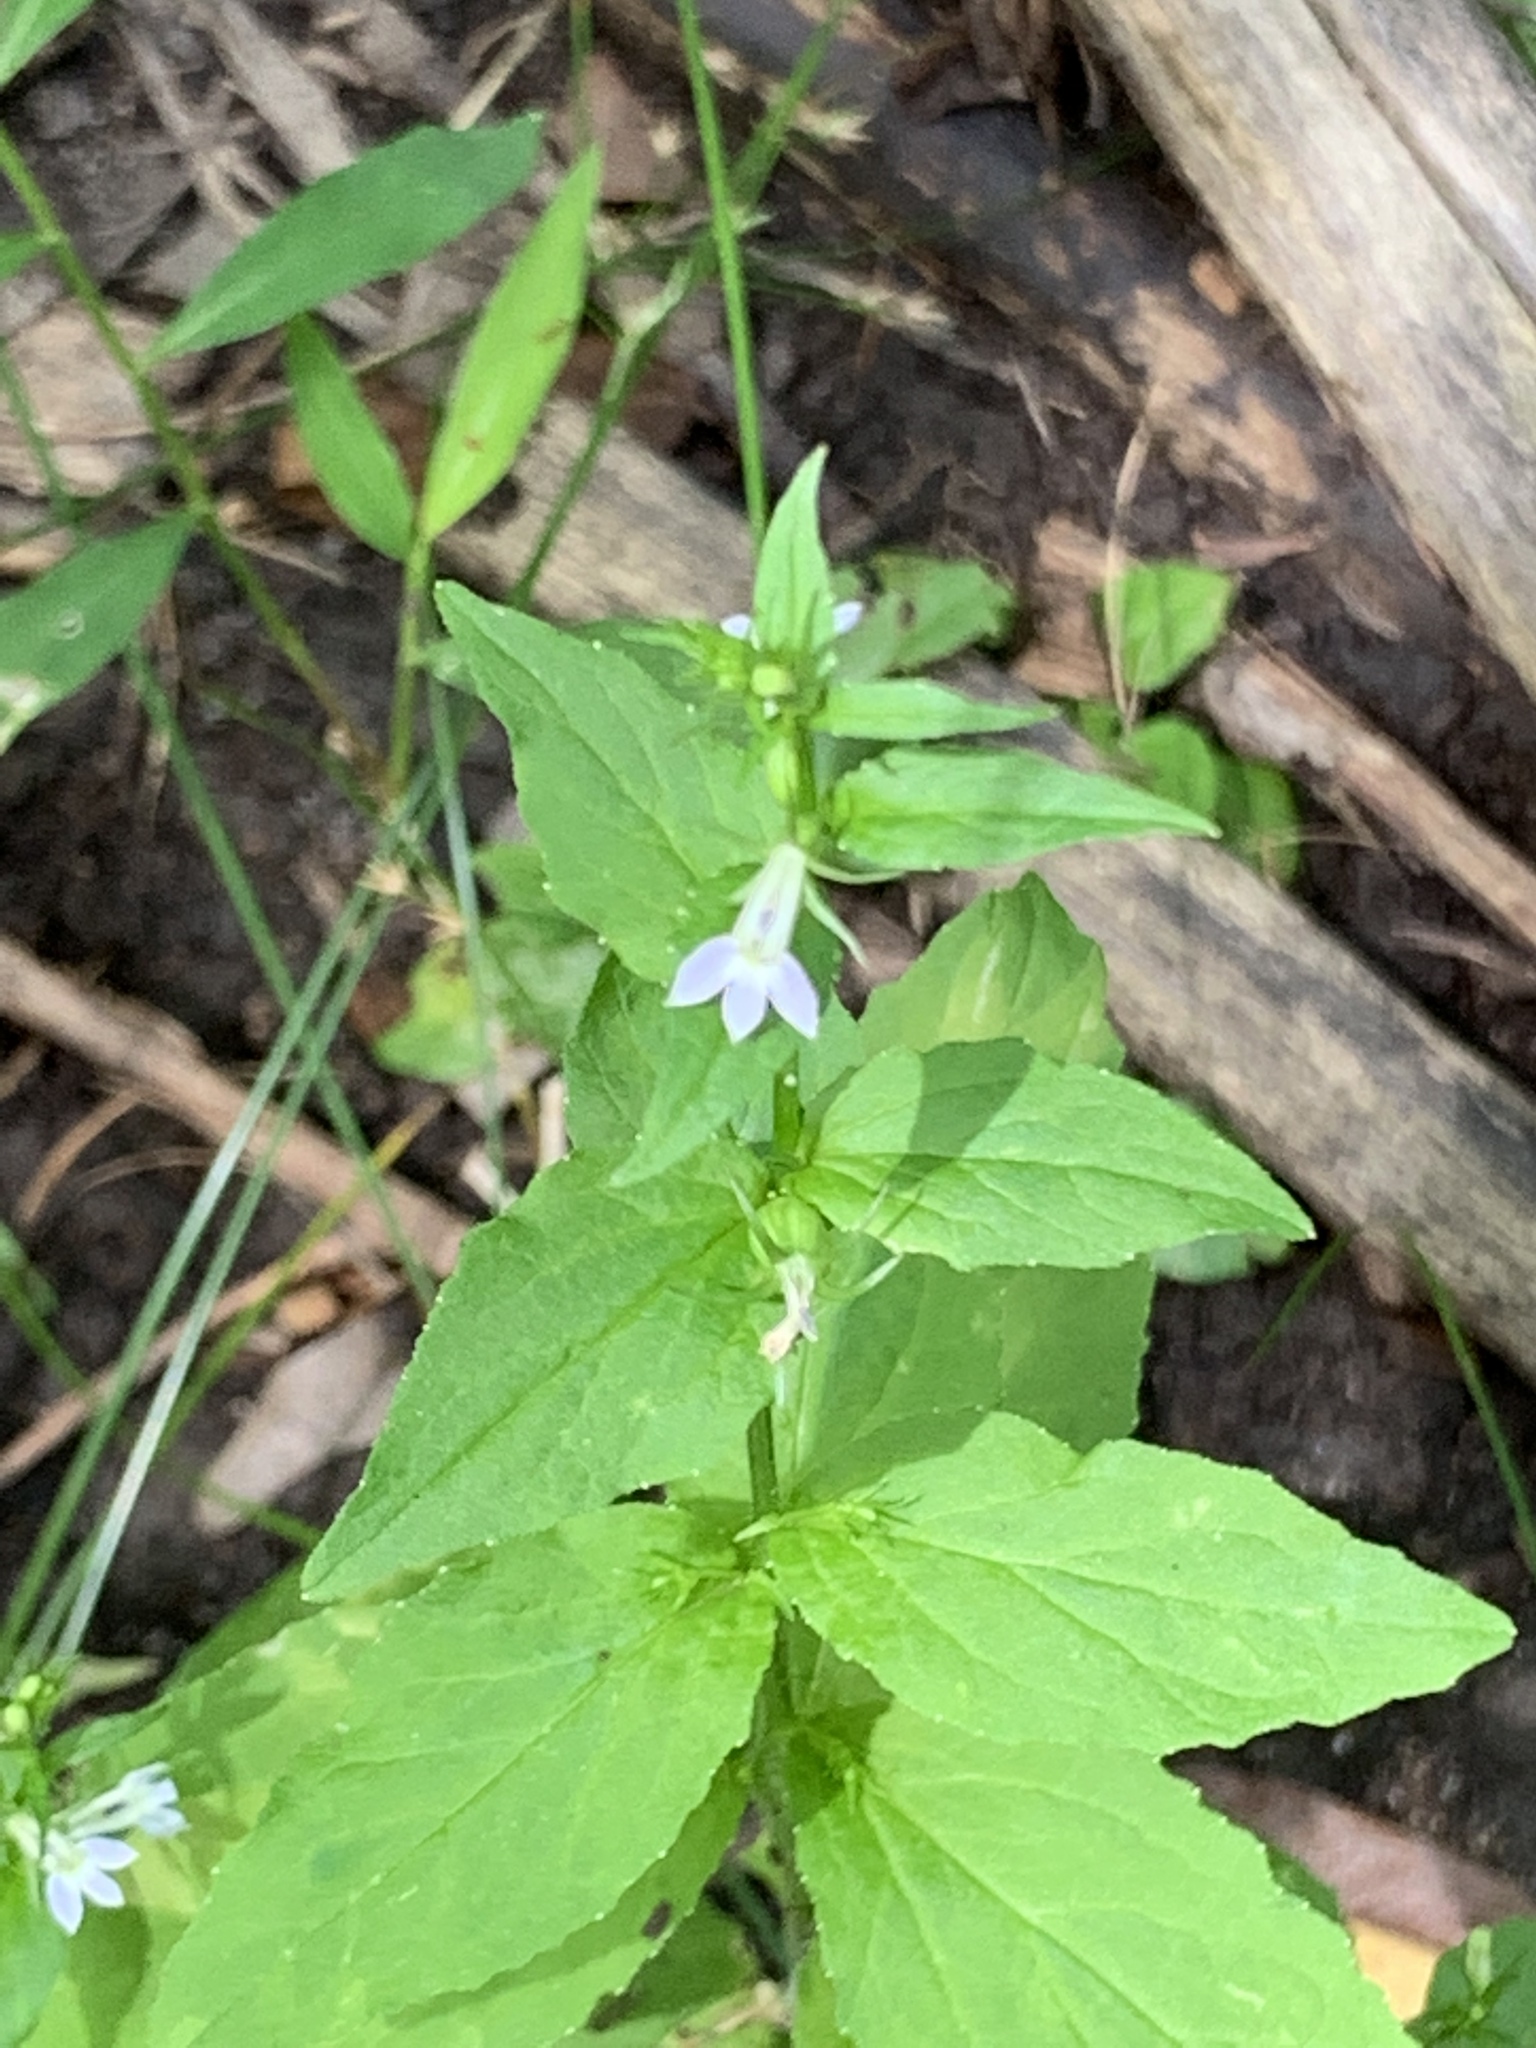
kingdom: Plantae
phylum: Tracheophyta
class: Magnoliopsida
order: Asterales
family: Campanulaceae
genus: Lobelia
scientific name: Lobelia inflata
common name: Indian tobacco
